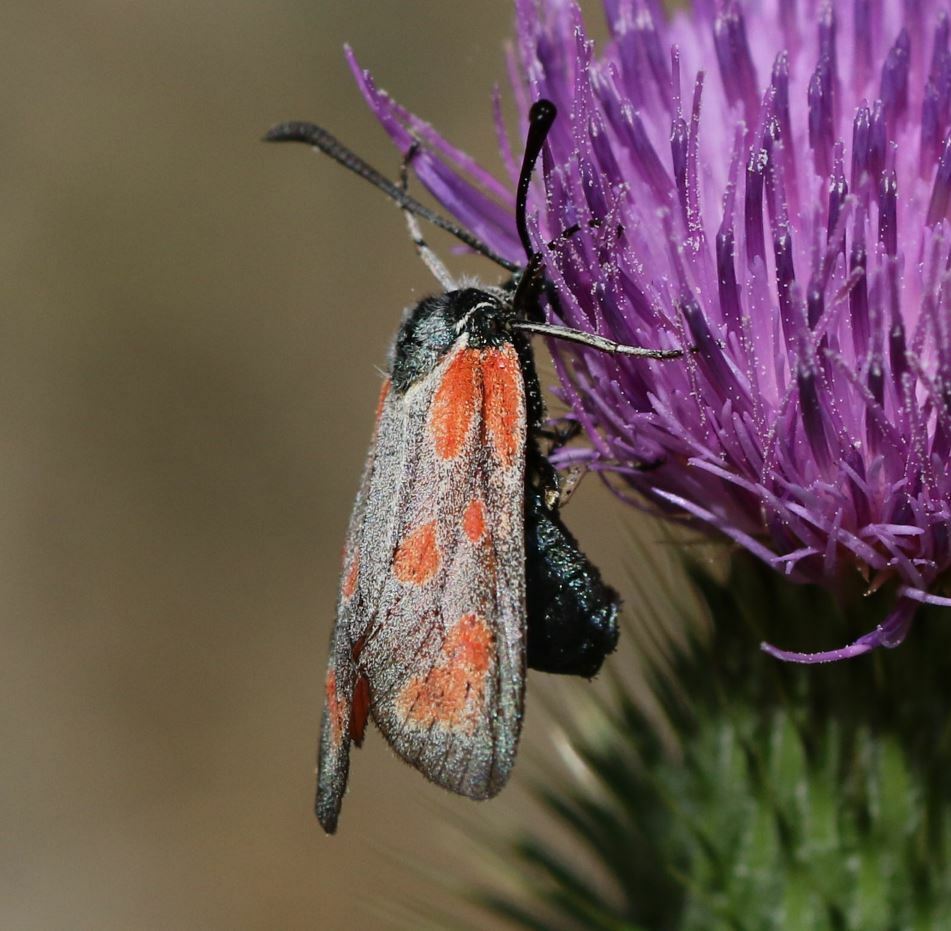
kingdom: Animalia
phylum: Arthropoda
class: Insecta
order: Lepidoptera
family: Zygaenidae
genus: Zygaena
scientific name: Zygaena loti
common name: Slender scotch burnet
